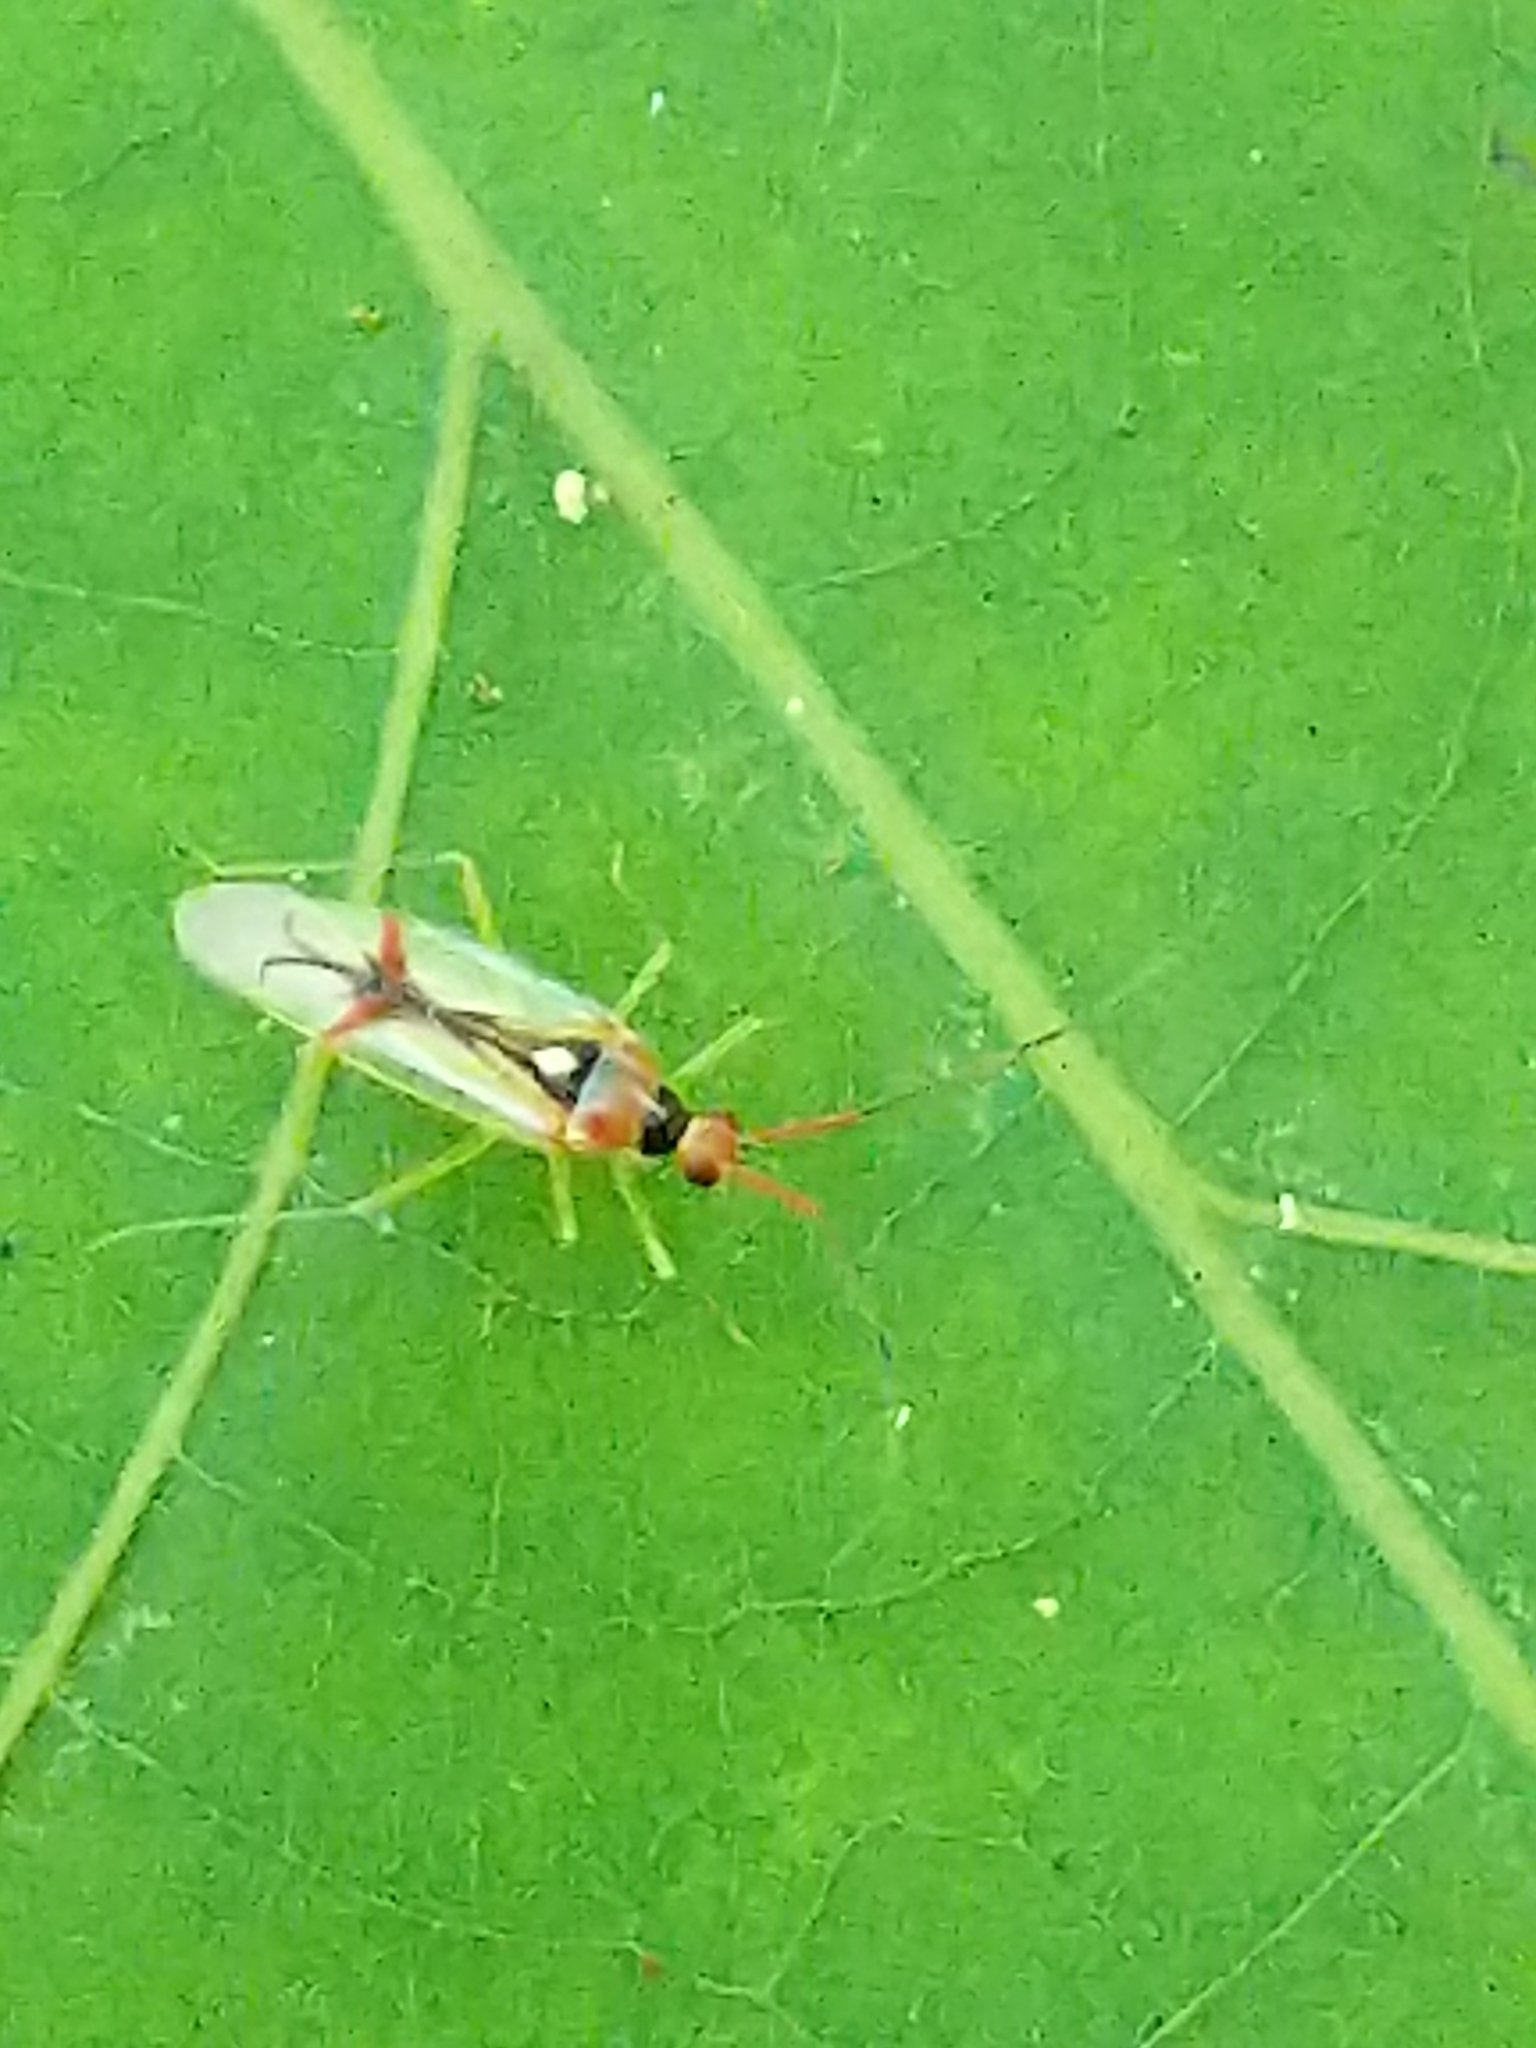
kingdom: Animalia
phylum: Arthropoda
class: Insecta
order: Hemiptera
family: Miridae
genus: Hyaliodes
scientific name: Hyaliodes harti
